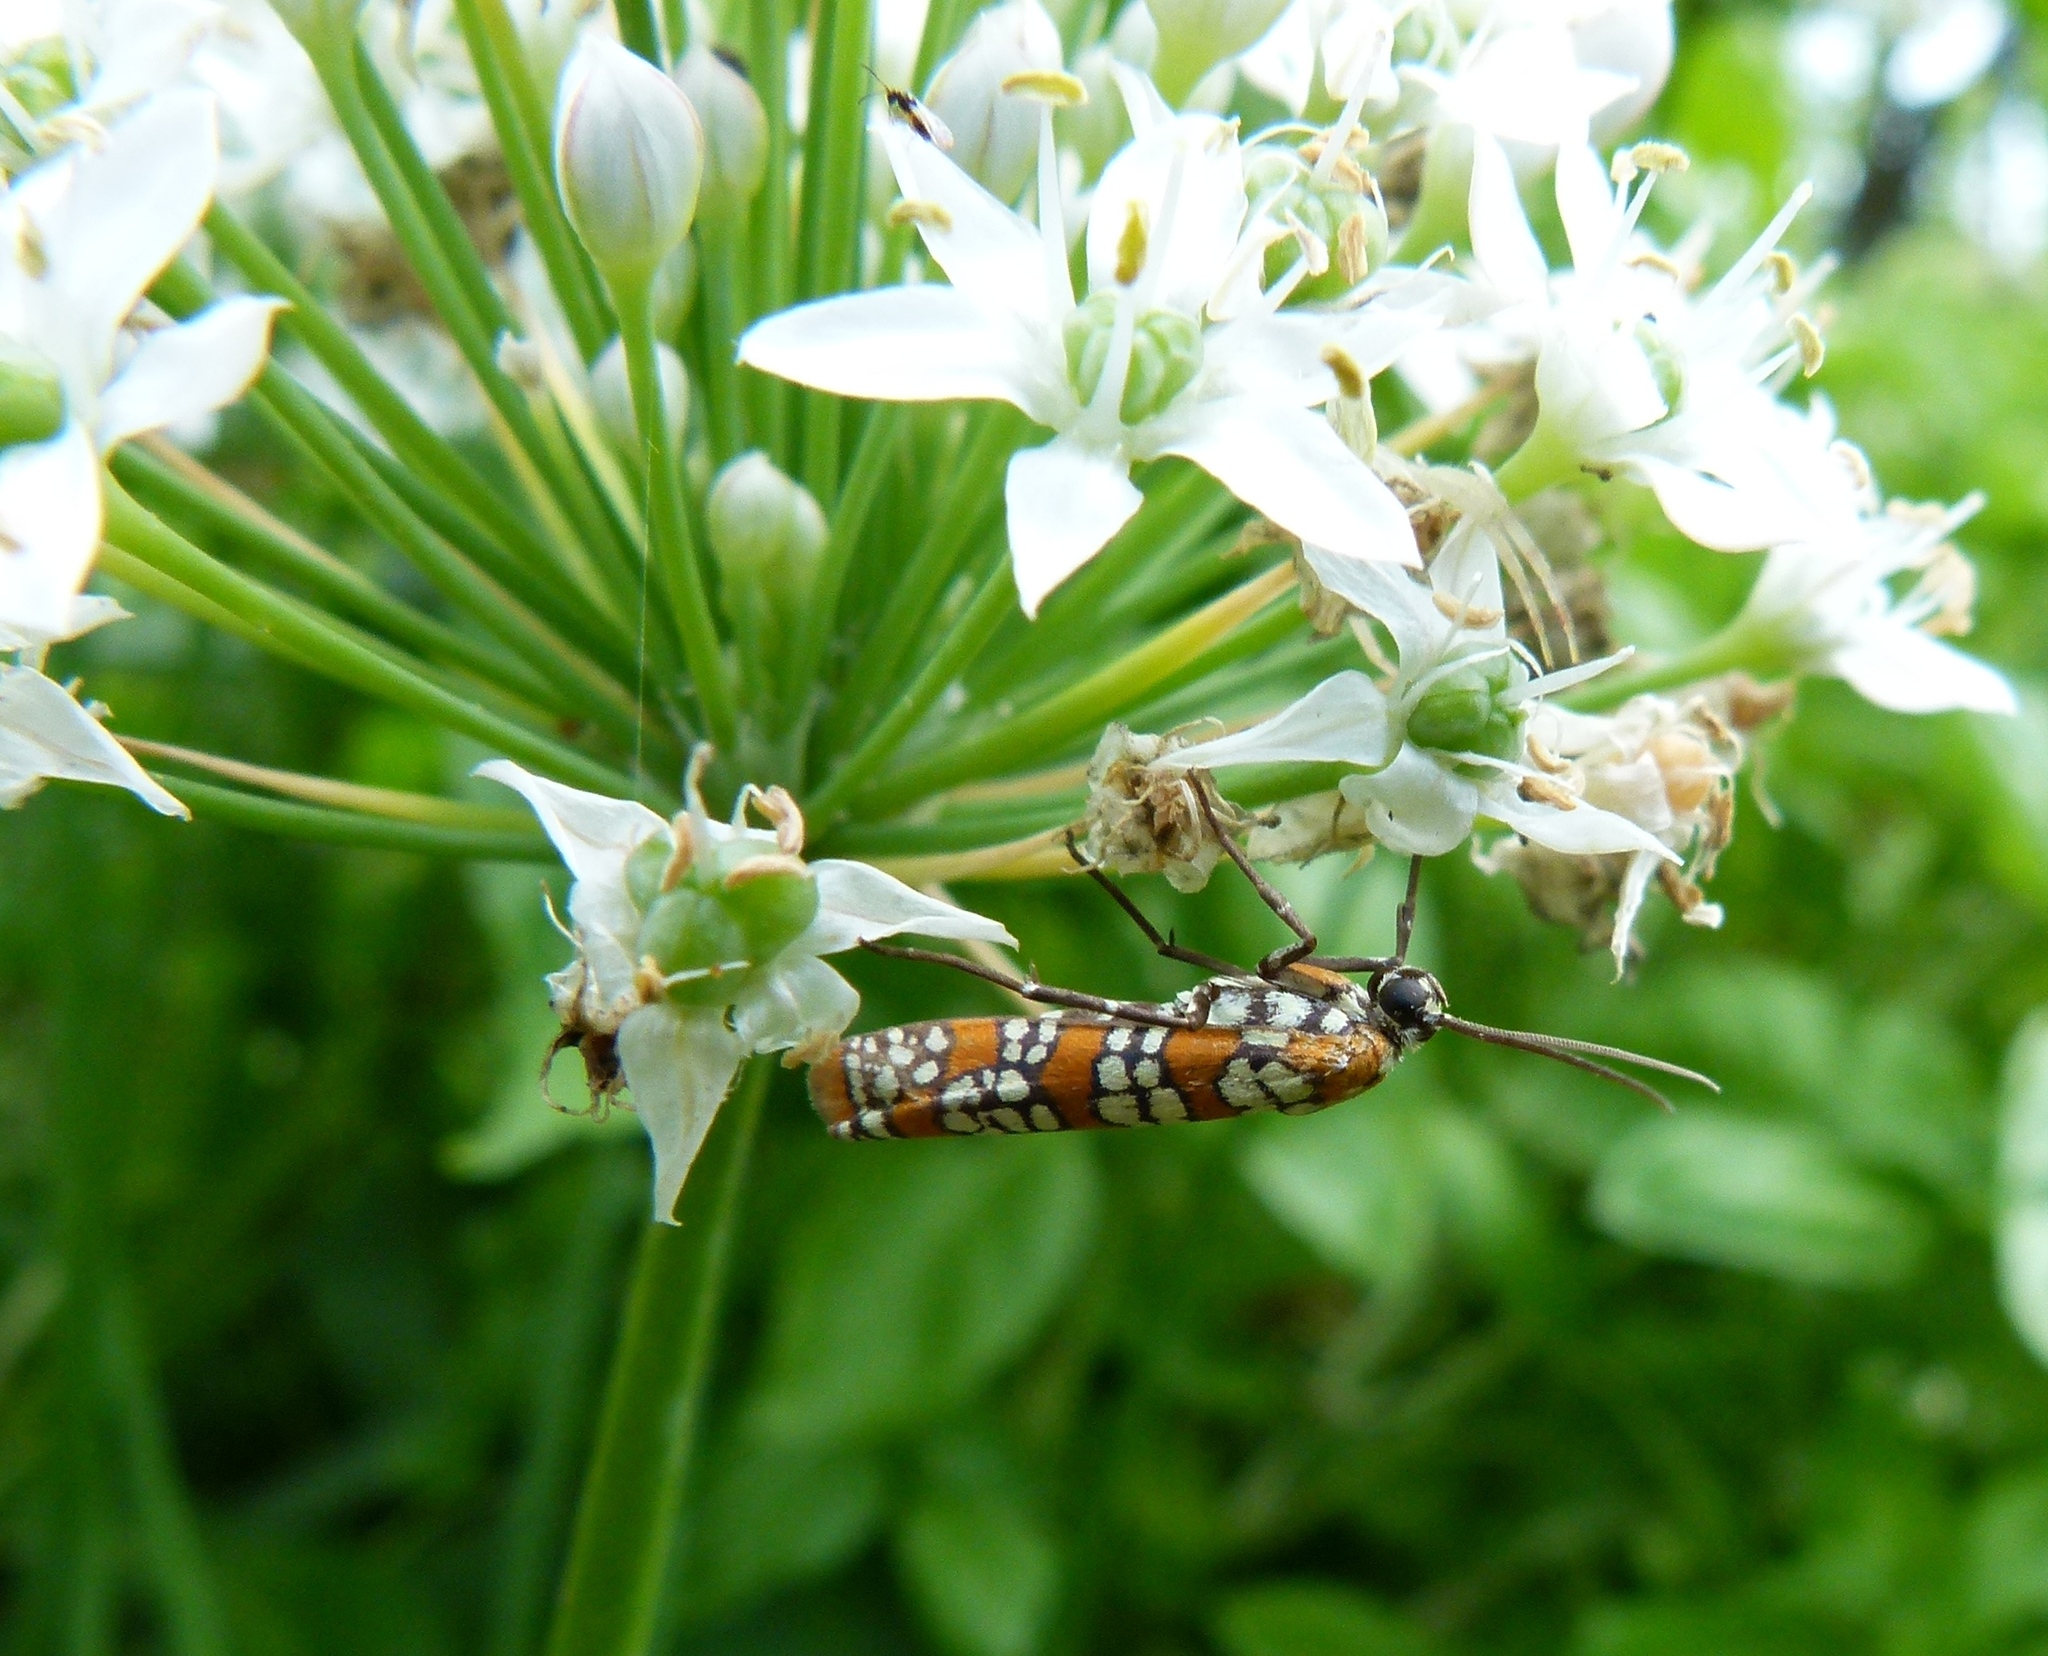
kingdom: Animalia
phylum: Arthropoda
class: Insecta
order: Lepidoptera
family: Attevidae
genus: Atteva
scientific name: Atteva punctella
